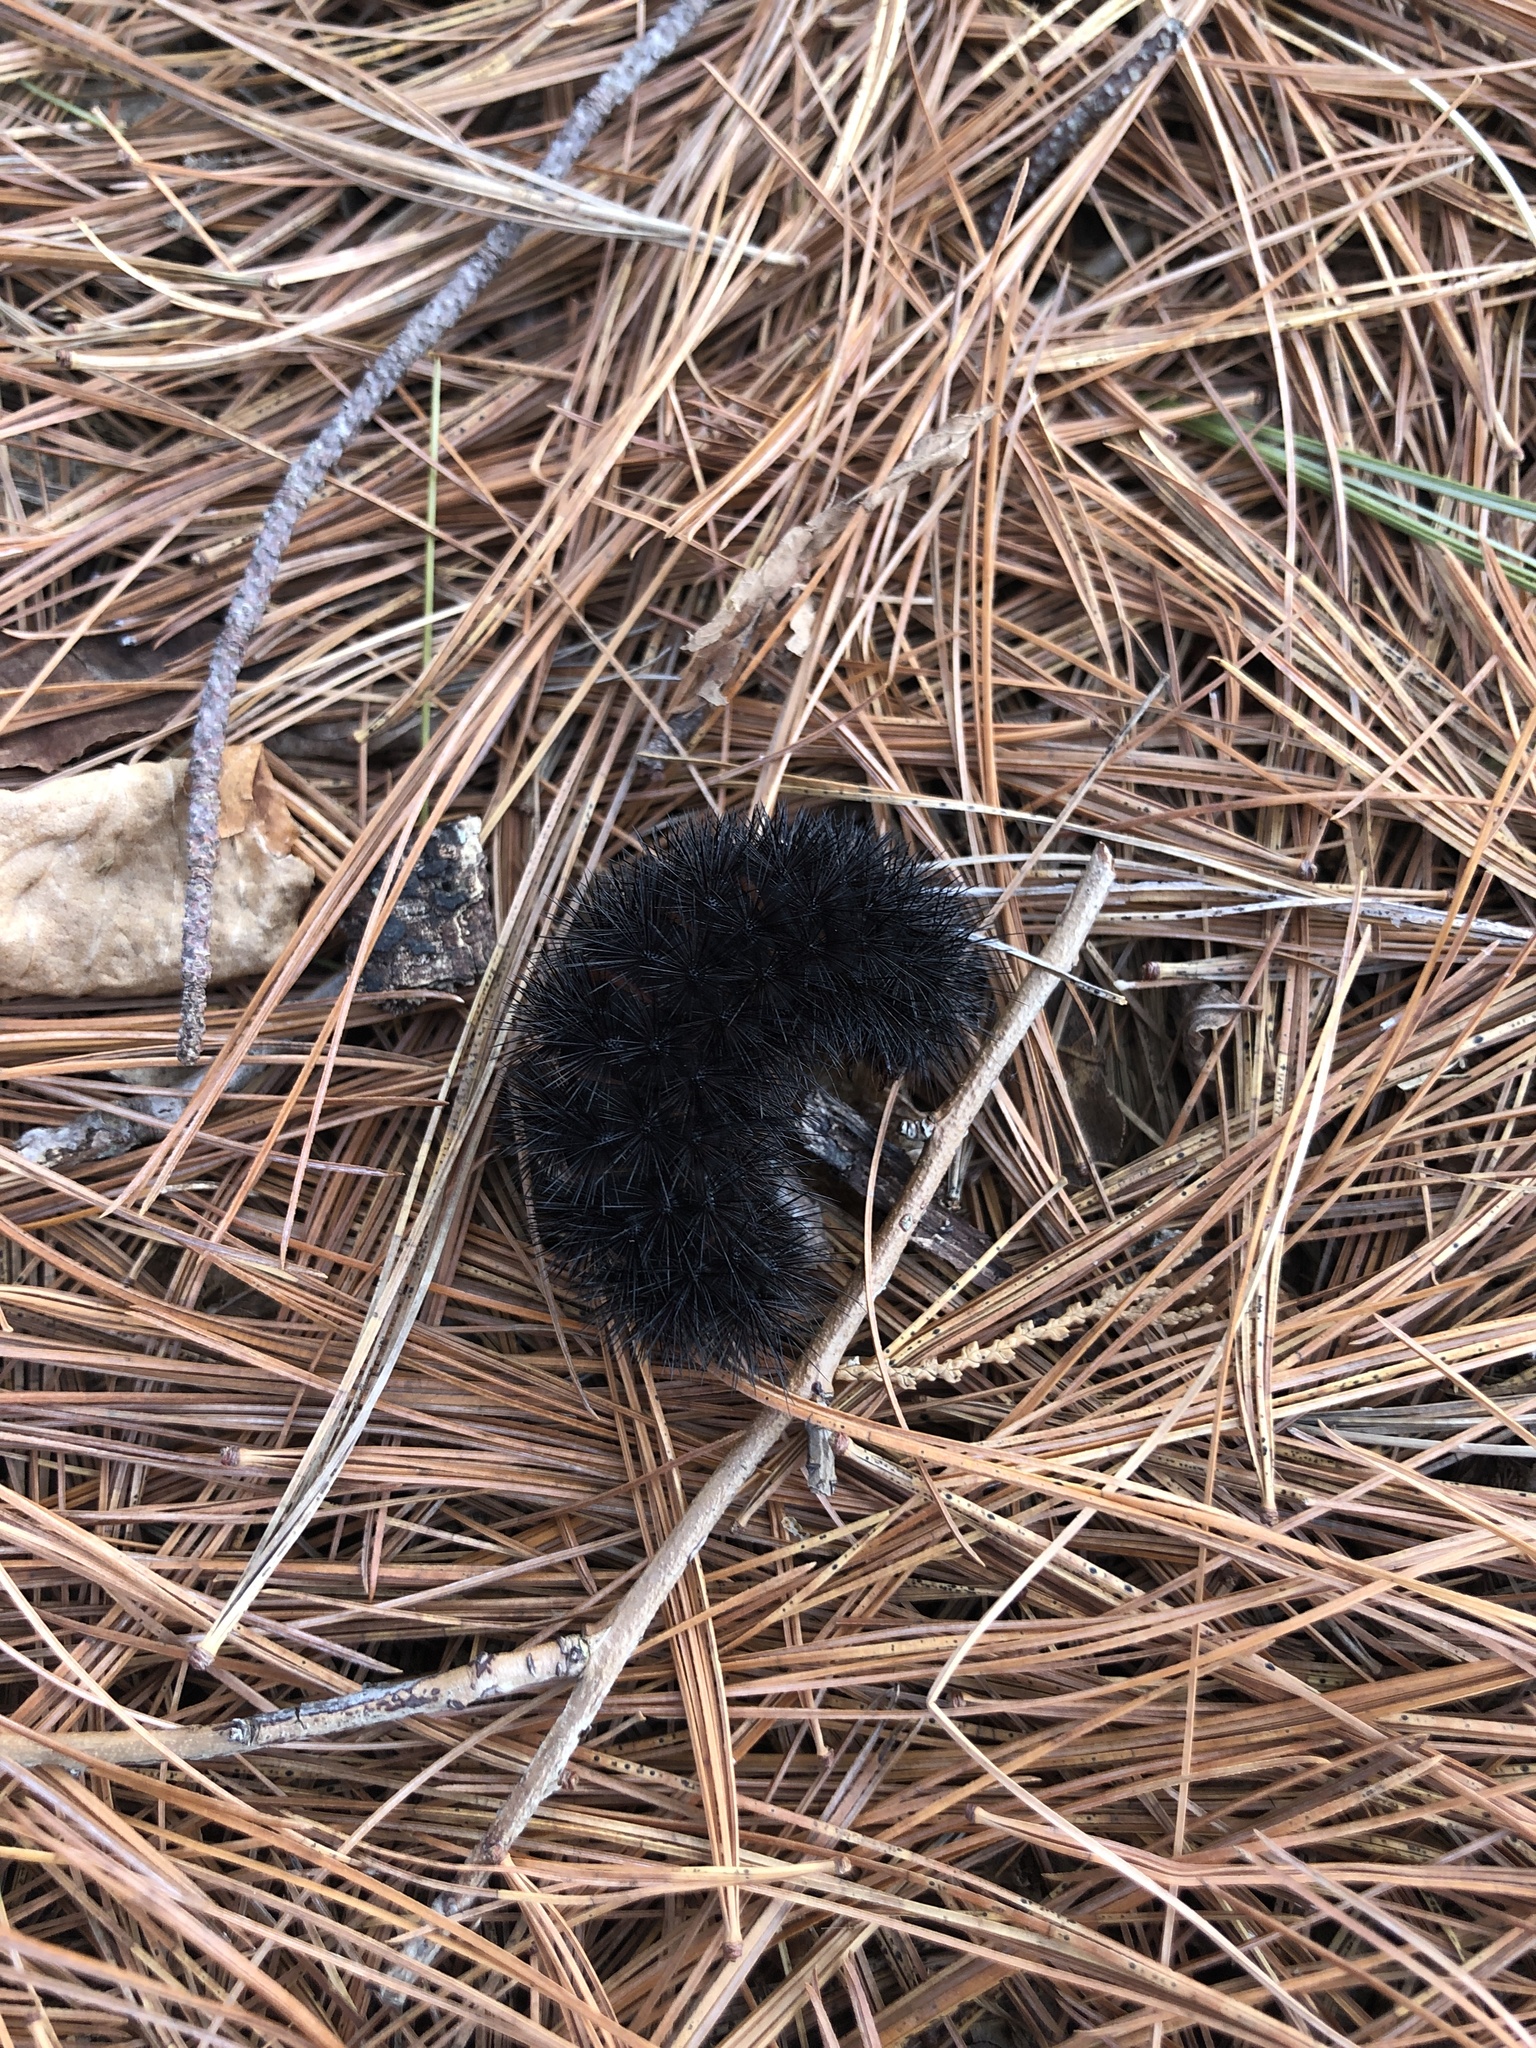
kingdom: Animalia
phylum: Arthropoda
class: Insecta
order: Lepidoptera
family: Erebidae
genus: Hypercompe
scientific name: Hypercompe scribonia
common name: Giant leopard moth
